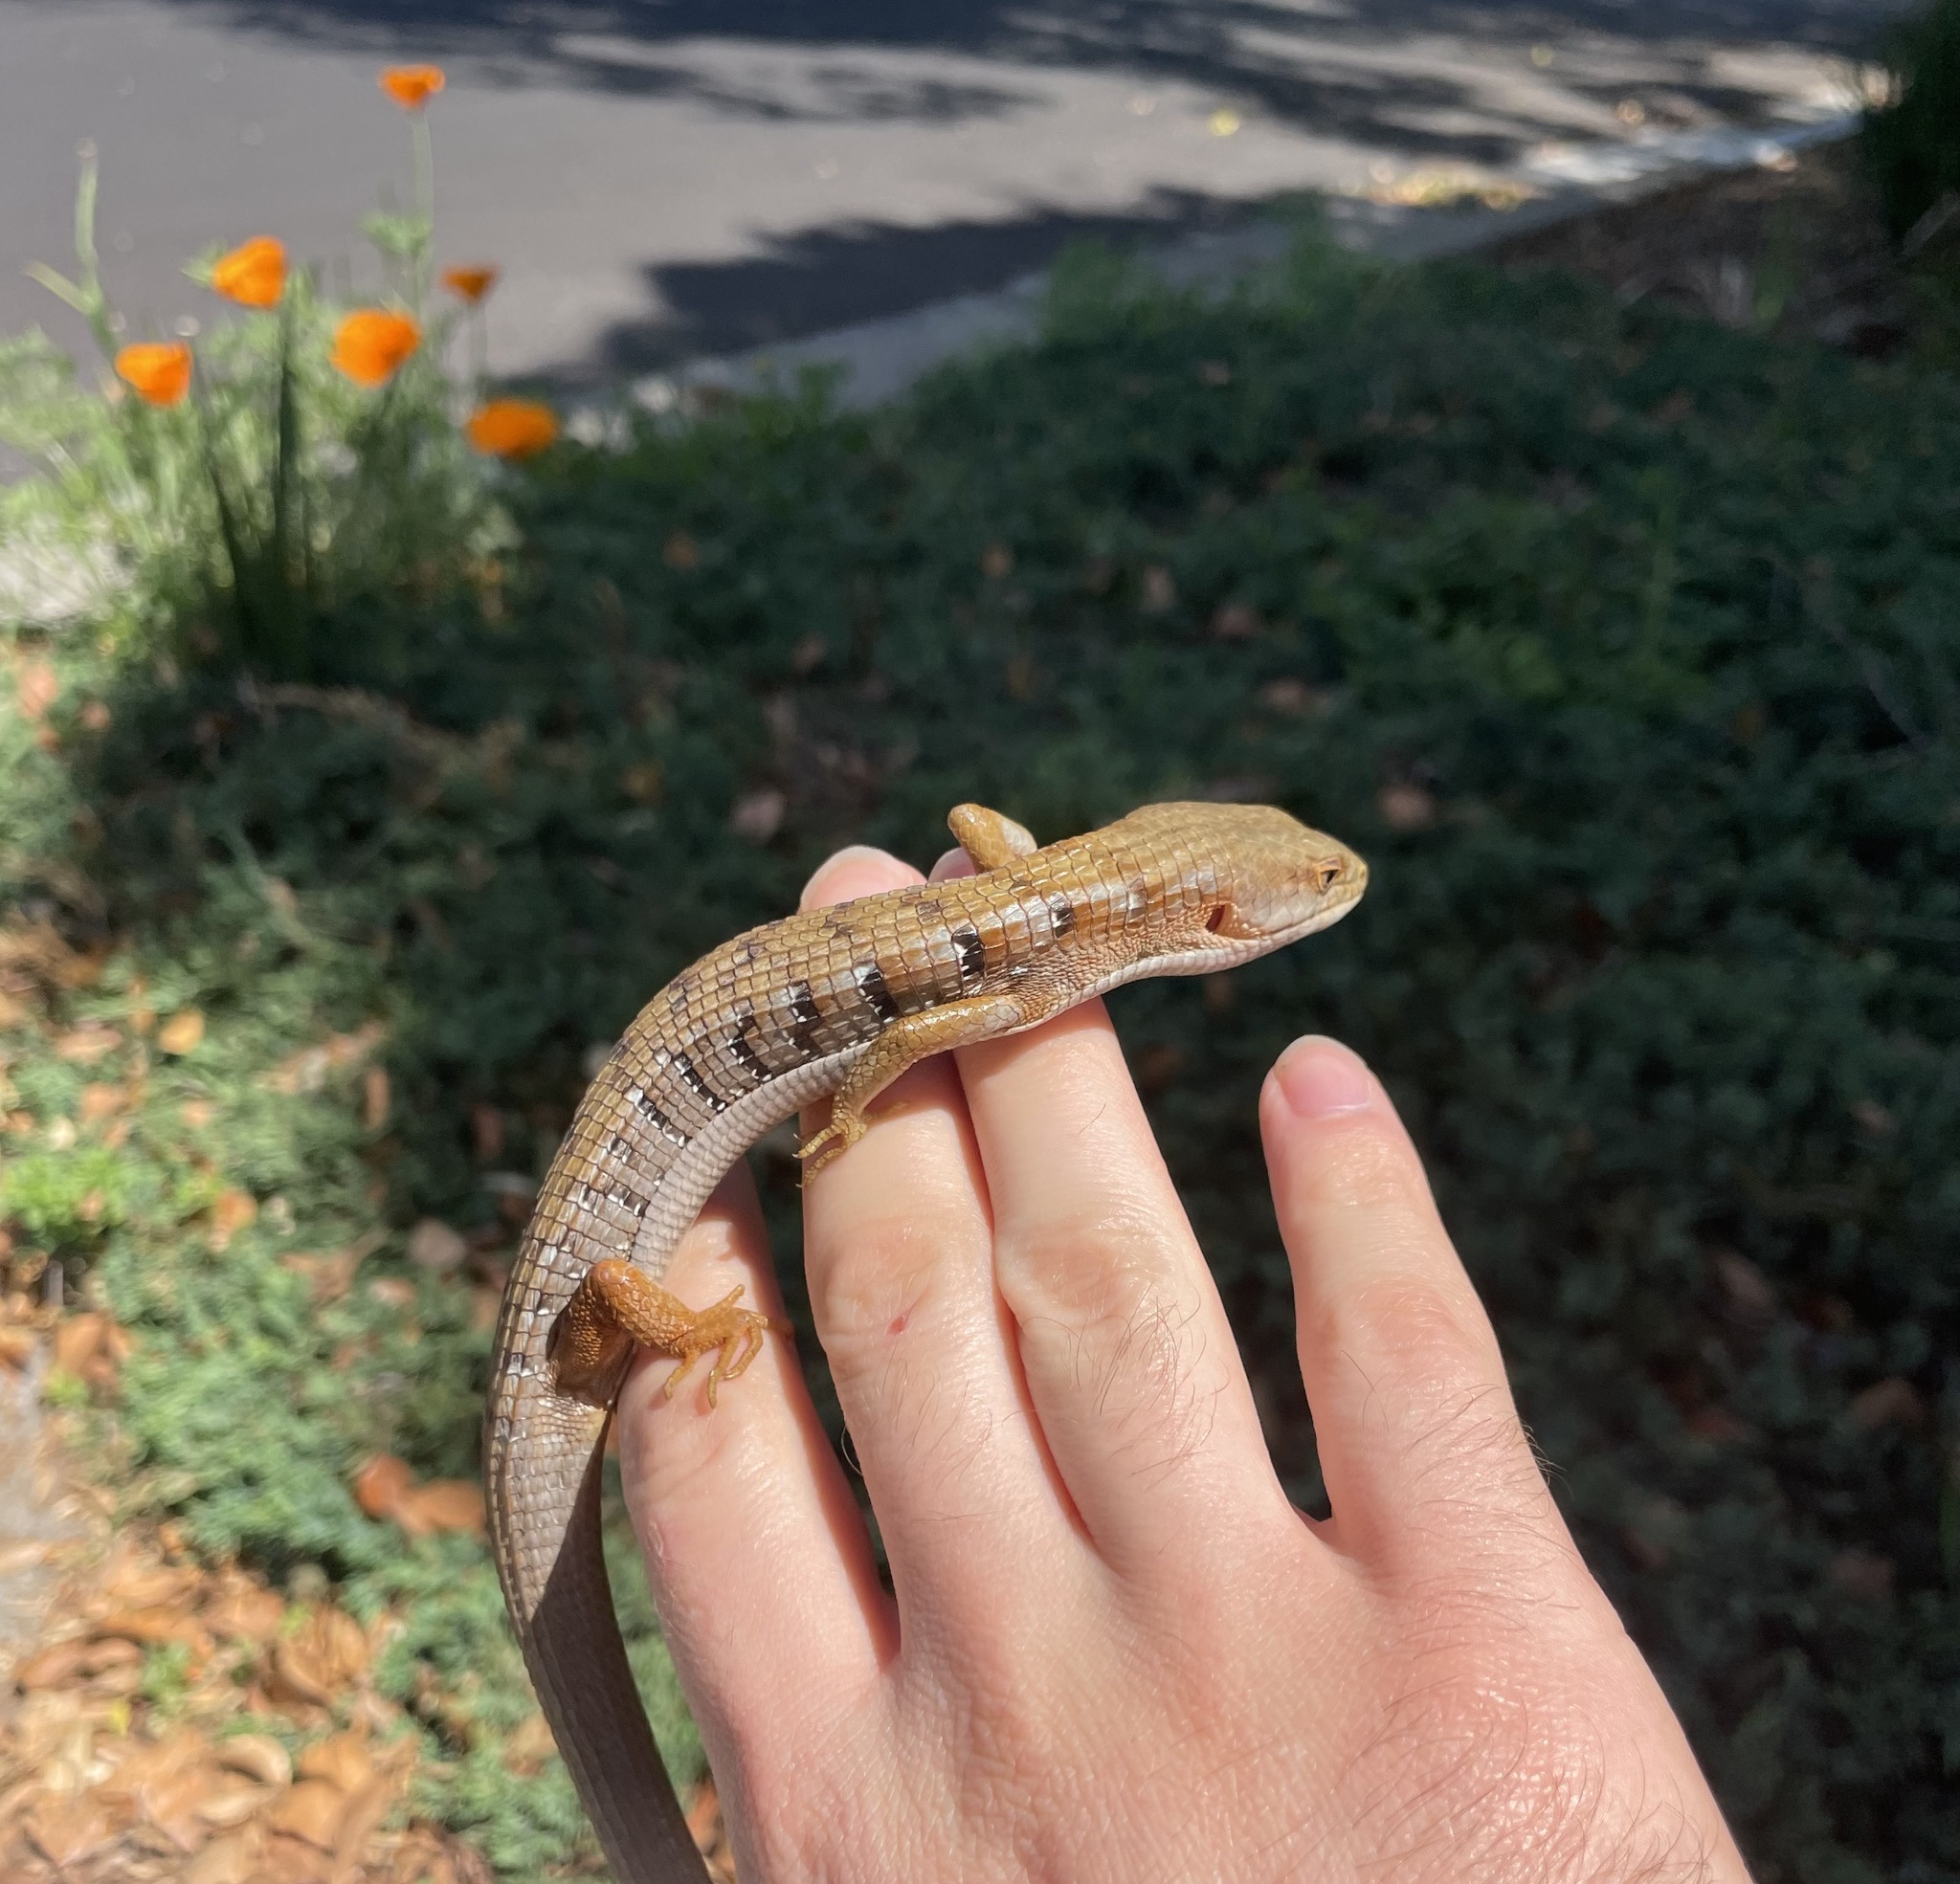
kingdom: Animalia
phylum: Chordata
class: Squamata
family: Anguidae
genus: Elgaria
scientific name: Elgaria multicarinata
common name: Southern alligator lizard
